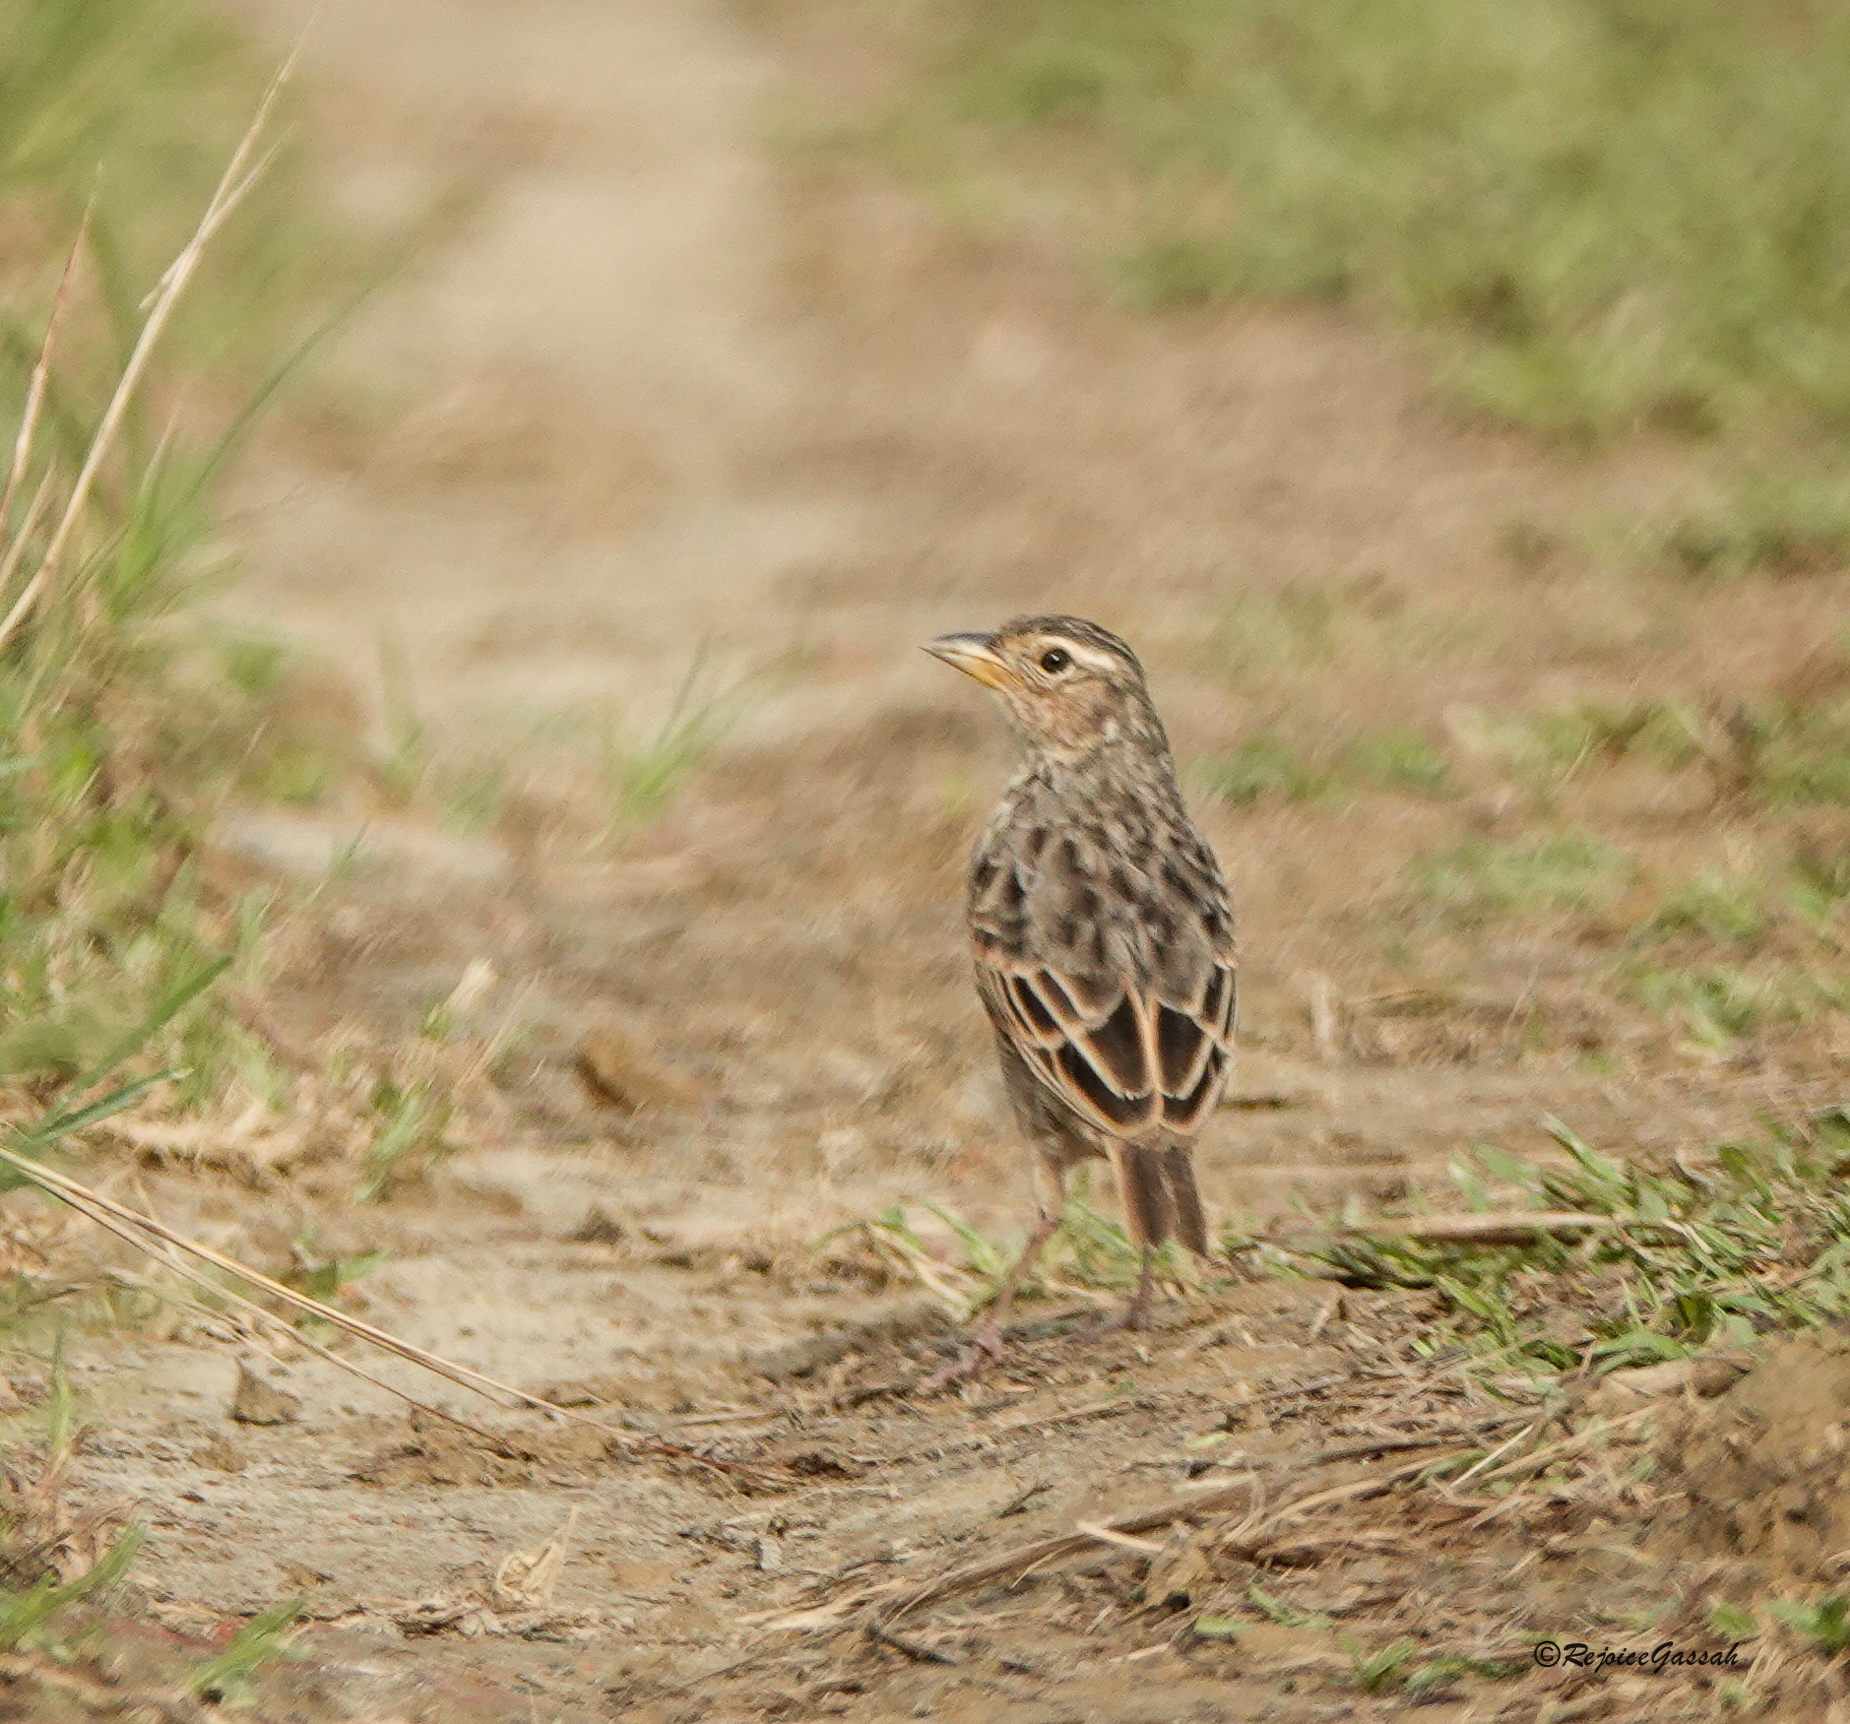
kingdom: Animalia
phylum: Chordata
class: Aves
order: Passeriformes
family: Alaudidae
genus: Mirafra
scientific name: Mirafra assamica
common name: Bengal bush lark
